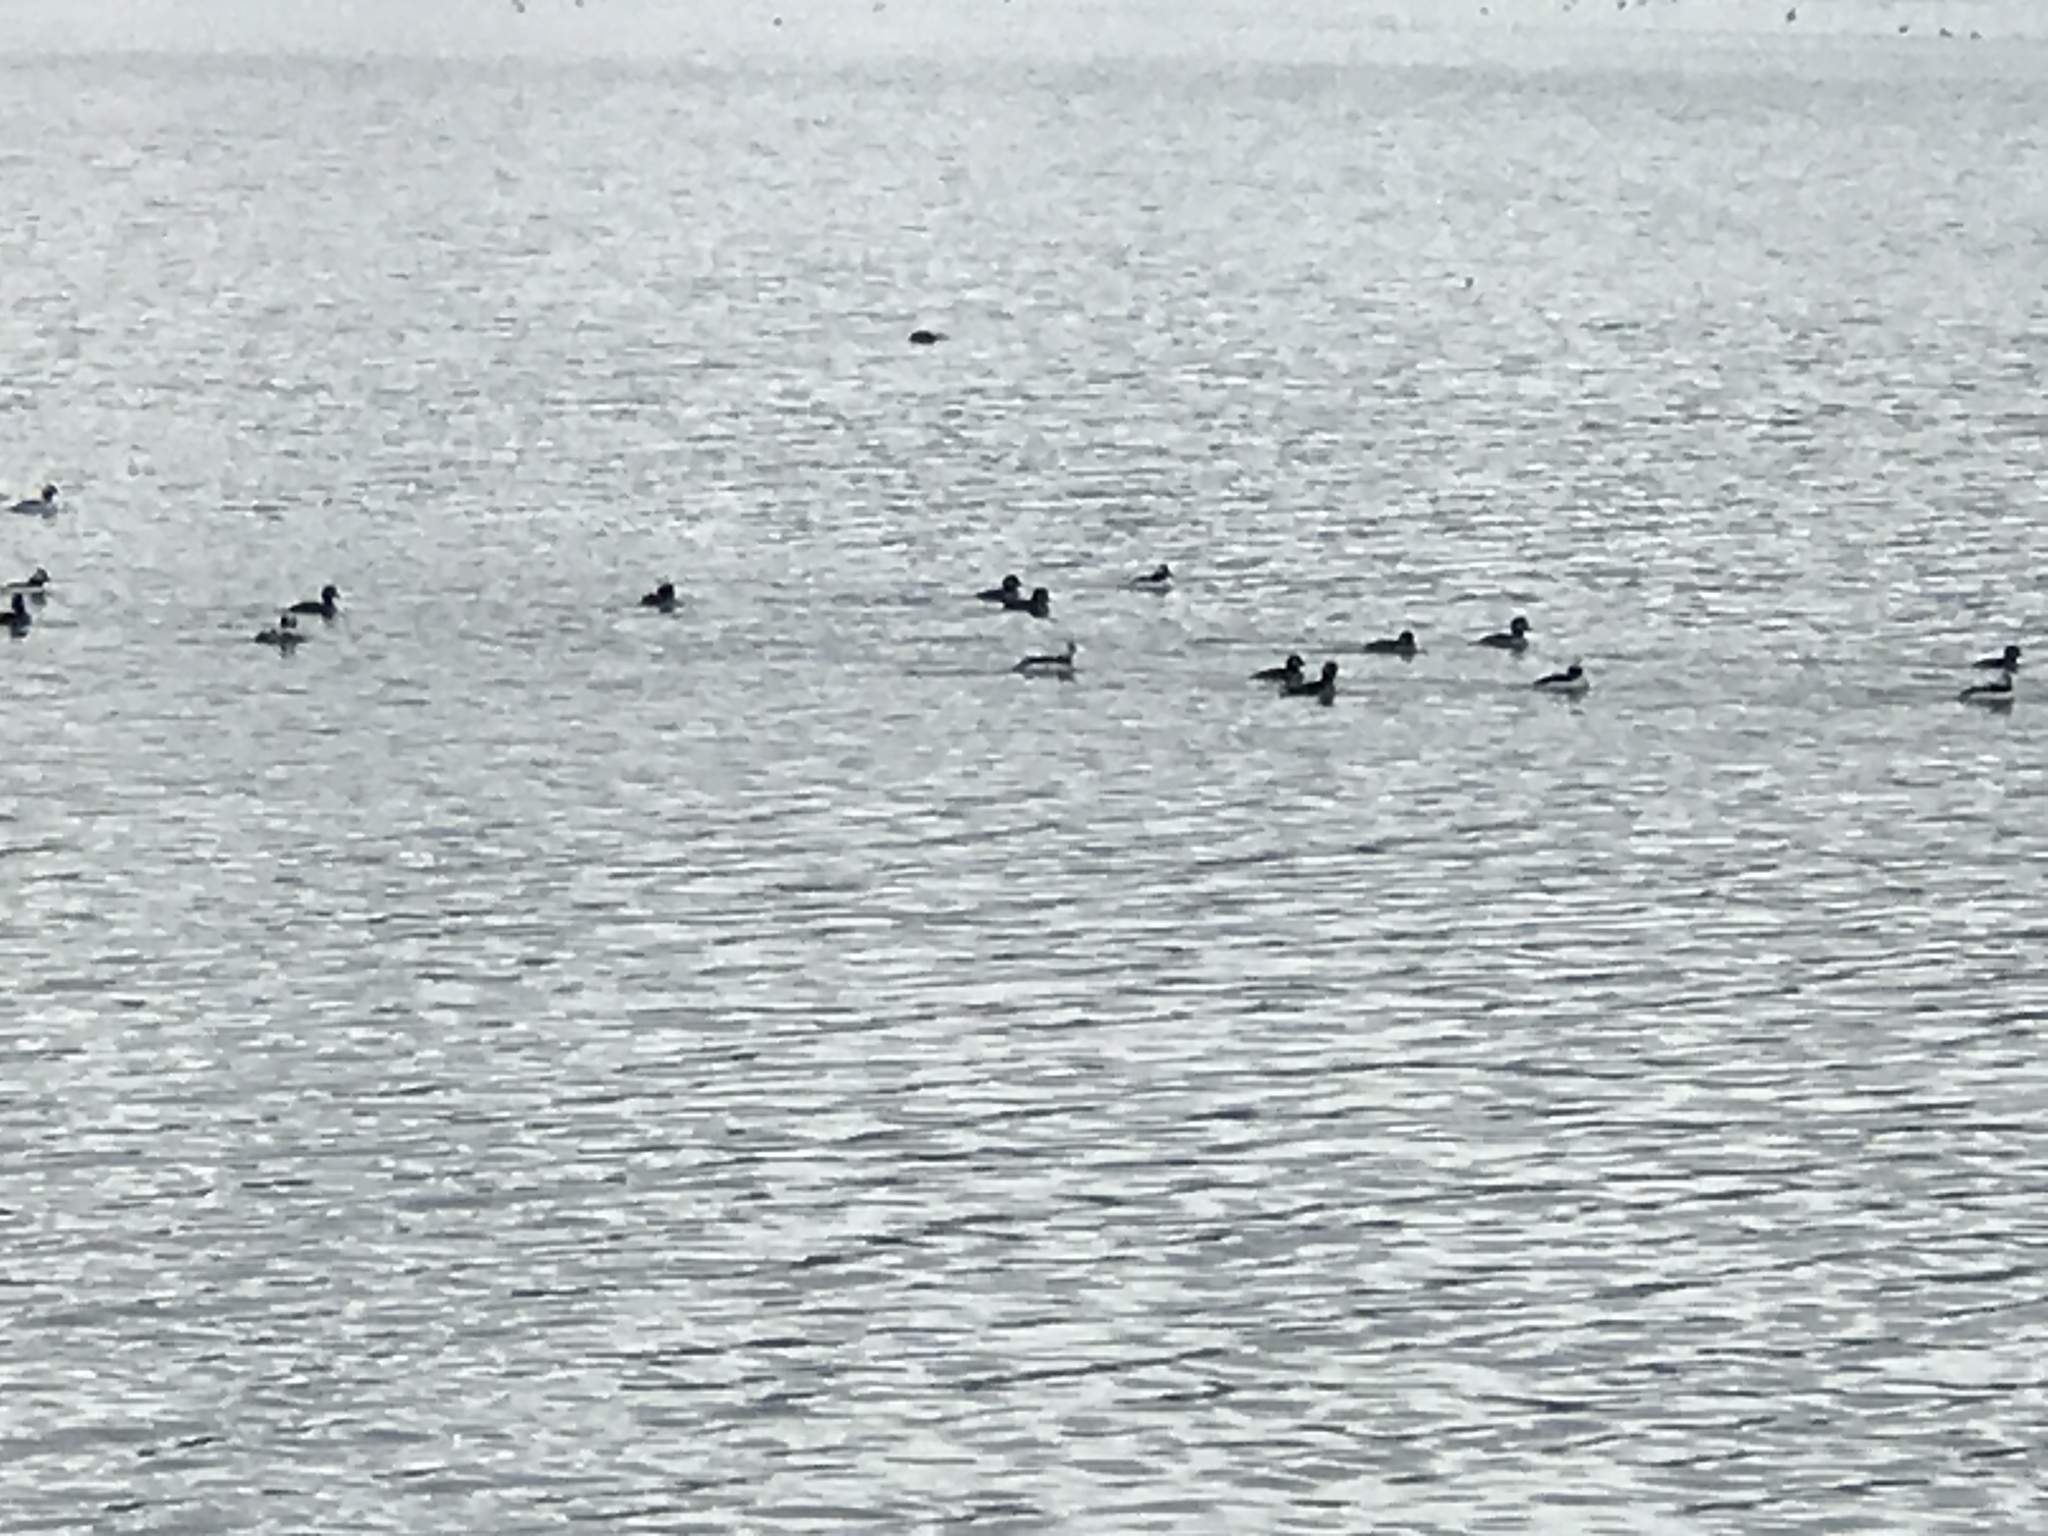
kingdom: Animalia
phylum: Chordata
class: Aves
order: Anseriformes
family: Anatidae
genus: Bucephala
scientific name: Bucephala albeola
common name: Bufflehead
